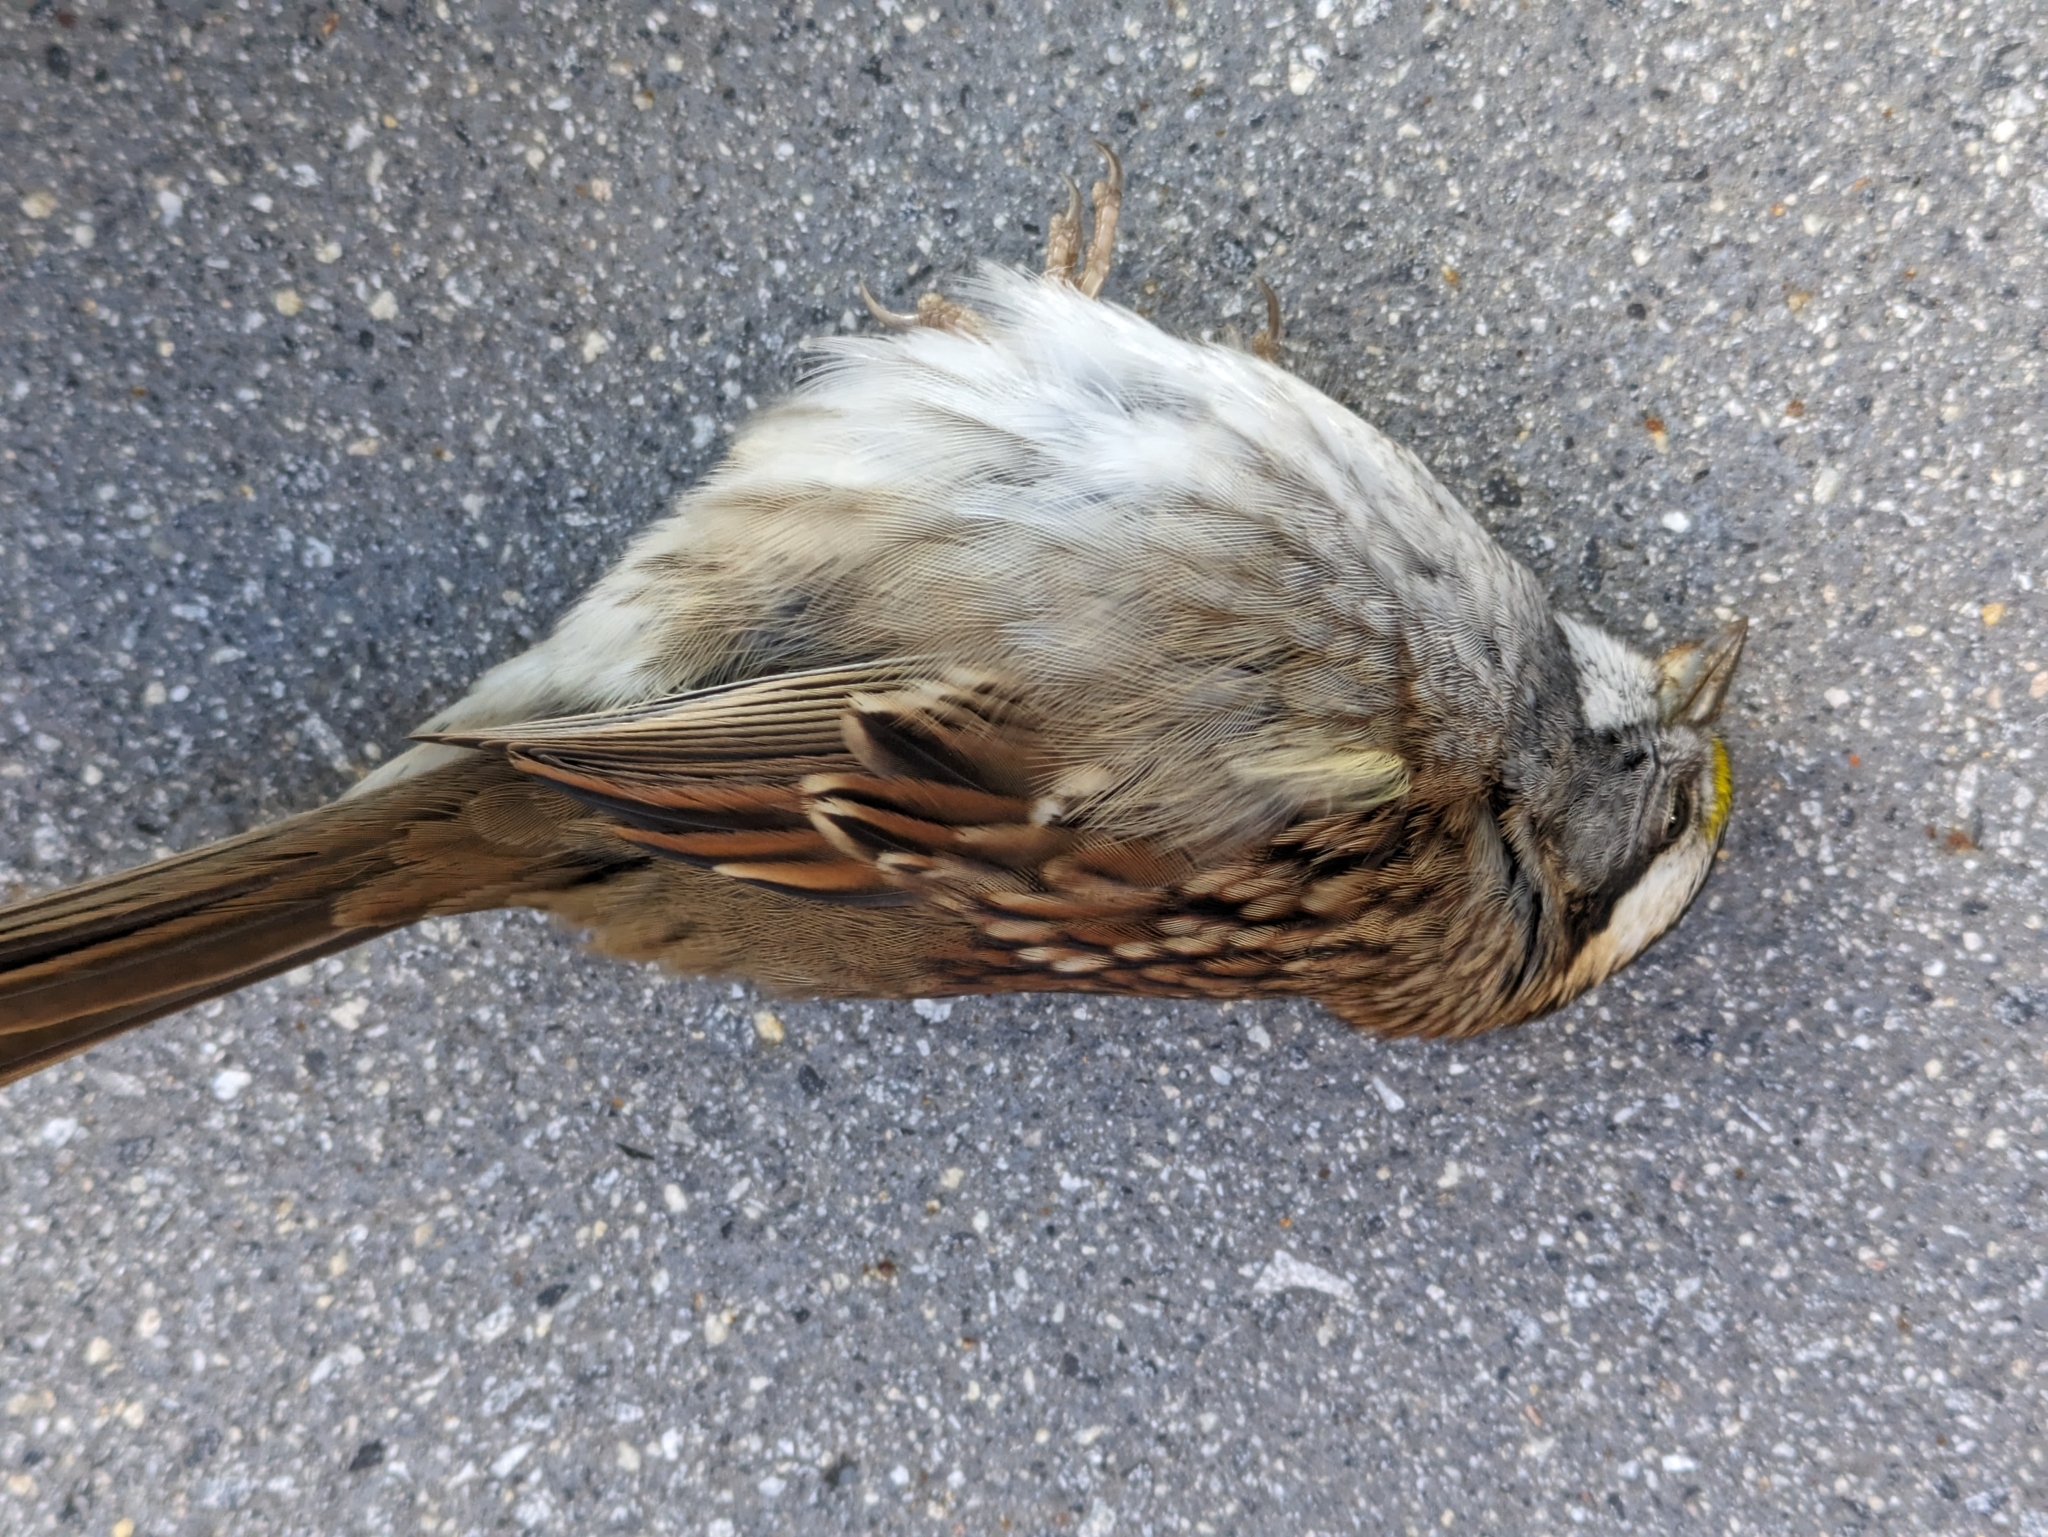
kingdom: Animalia
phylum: Chordata
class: Aves
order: Passeriformes
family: Passerellidae
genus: Zonotrichia
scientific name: Zonotrichia albicollis
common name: White-throated sparrow
